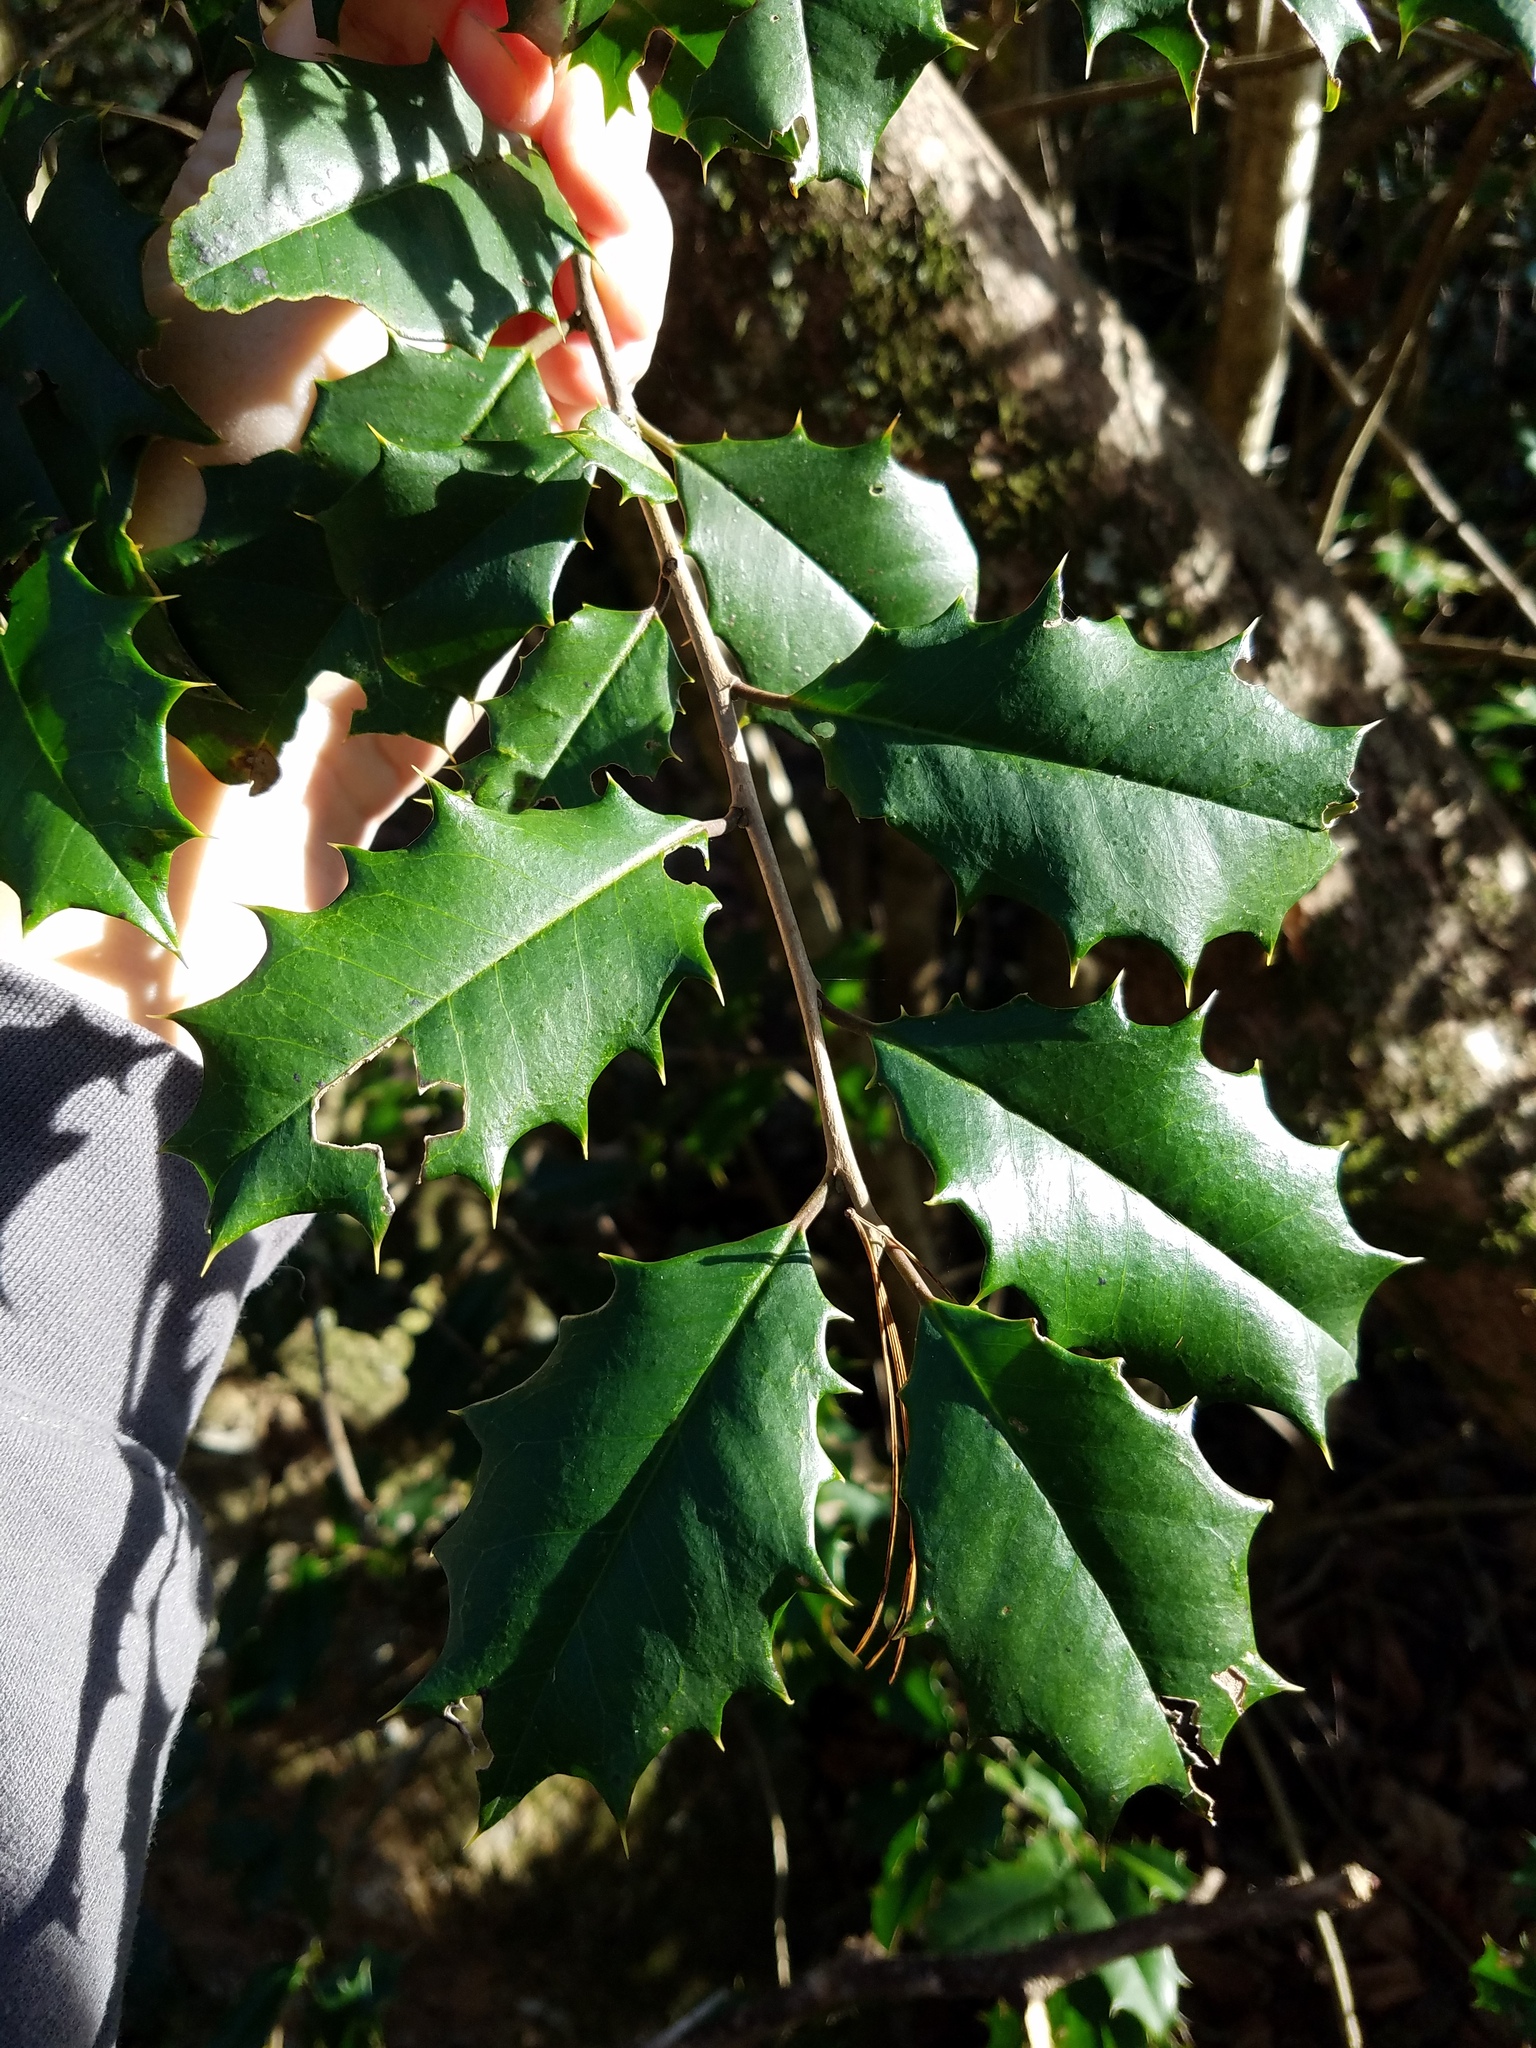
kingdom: Plantae
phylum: Tracheophyta
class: Magnoliopsida
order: Aquifoliales
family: Aquifoliaceae
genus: Ilex
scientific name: Ilex opaca
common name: American holly
